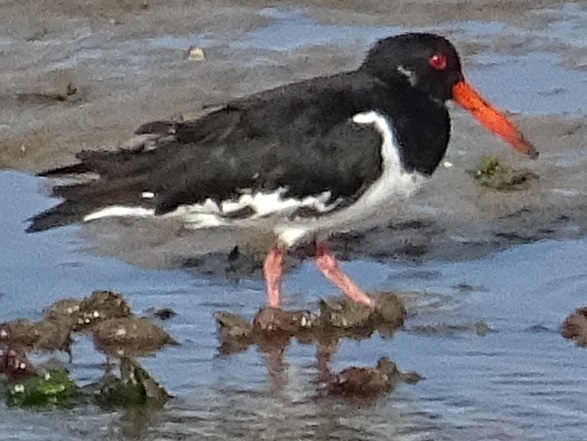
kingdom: Animalia
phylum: Chordata
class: Aves
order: Charadriiformes
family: Haematopodidae
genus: Haematopus
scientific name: Haematopus ostralegus
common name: Eurasian oystercatcher
